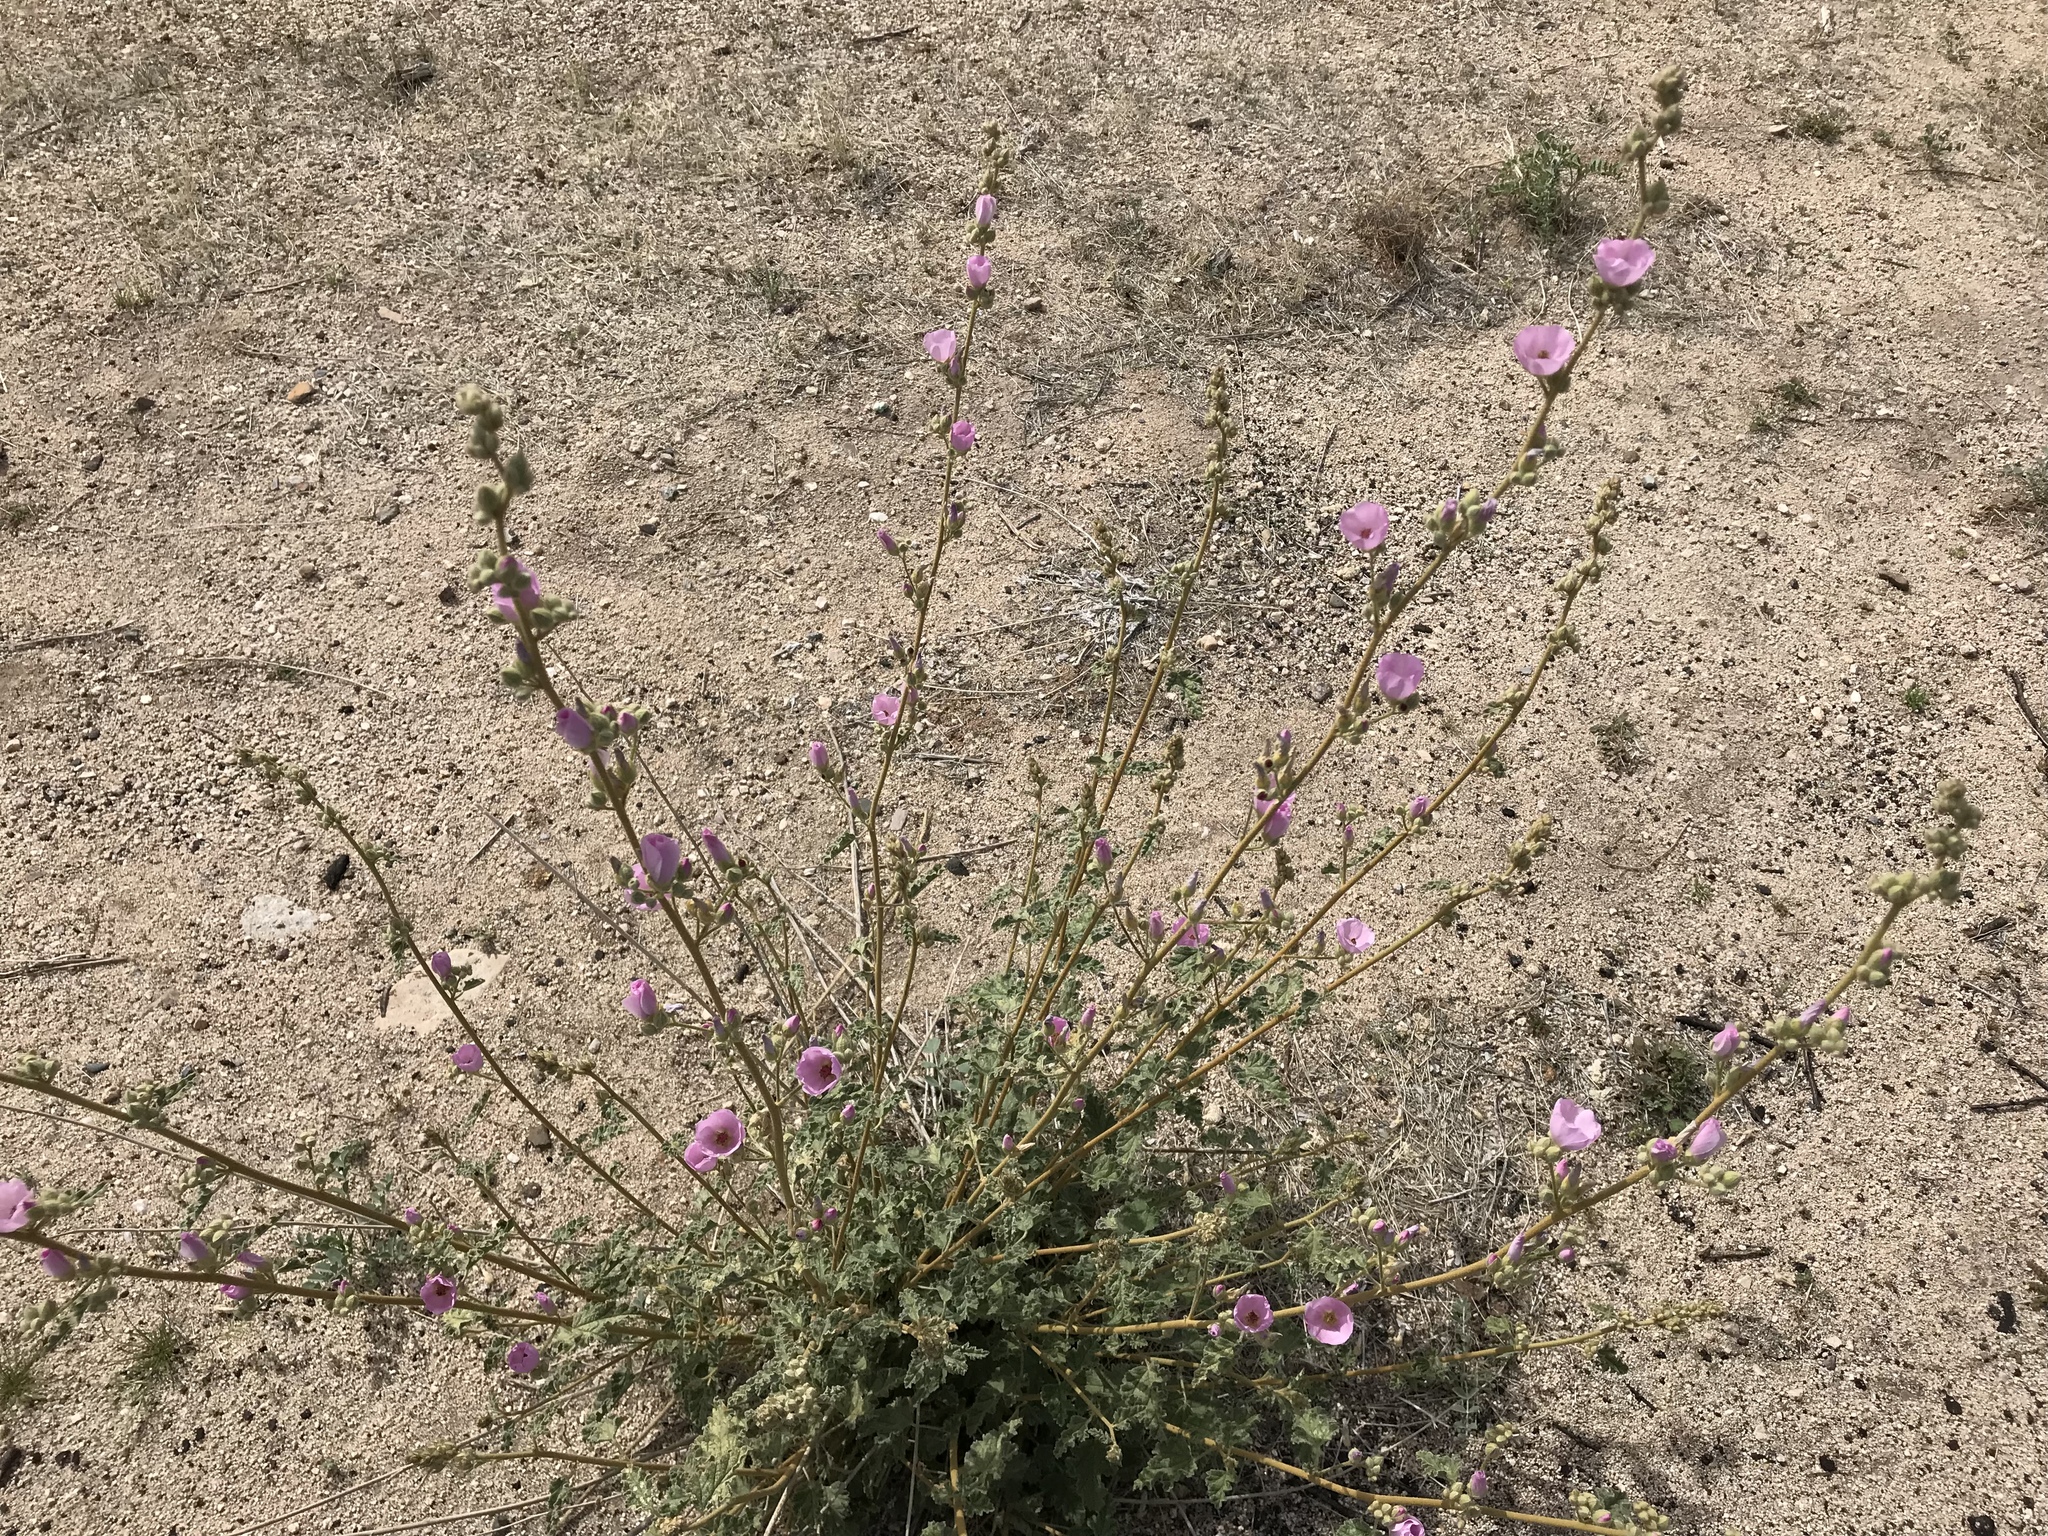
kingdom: Plantae
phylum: Tracheophyta
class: Magnoliopsida
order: Malvales
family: Malvaceae
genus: Sphaeralcea
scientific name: Sphaeralcea ambigua
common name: Apricot globe-mallow
